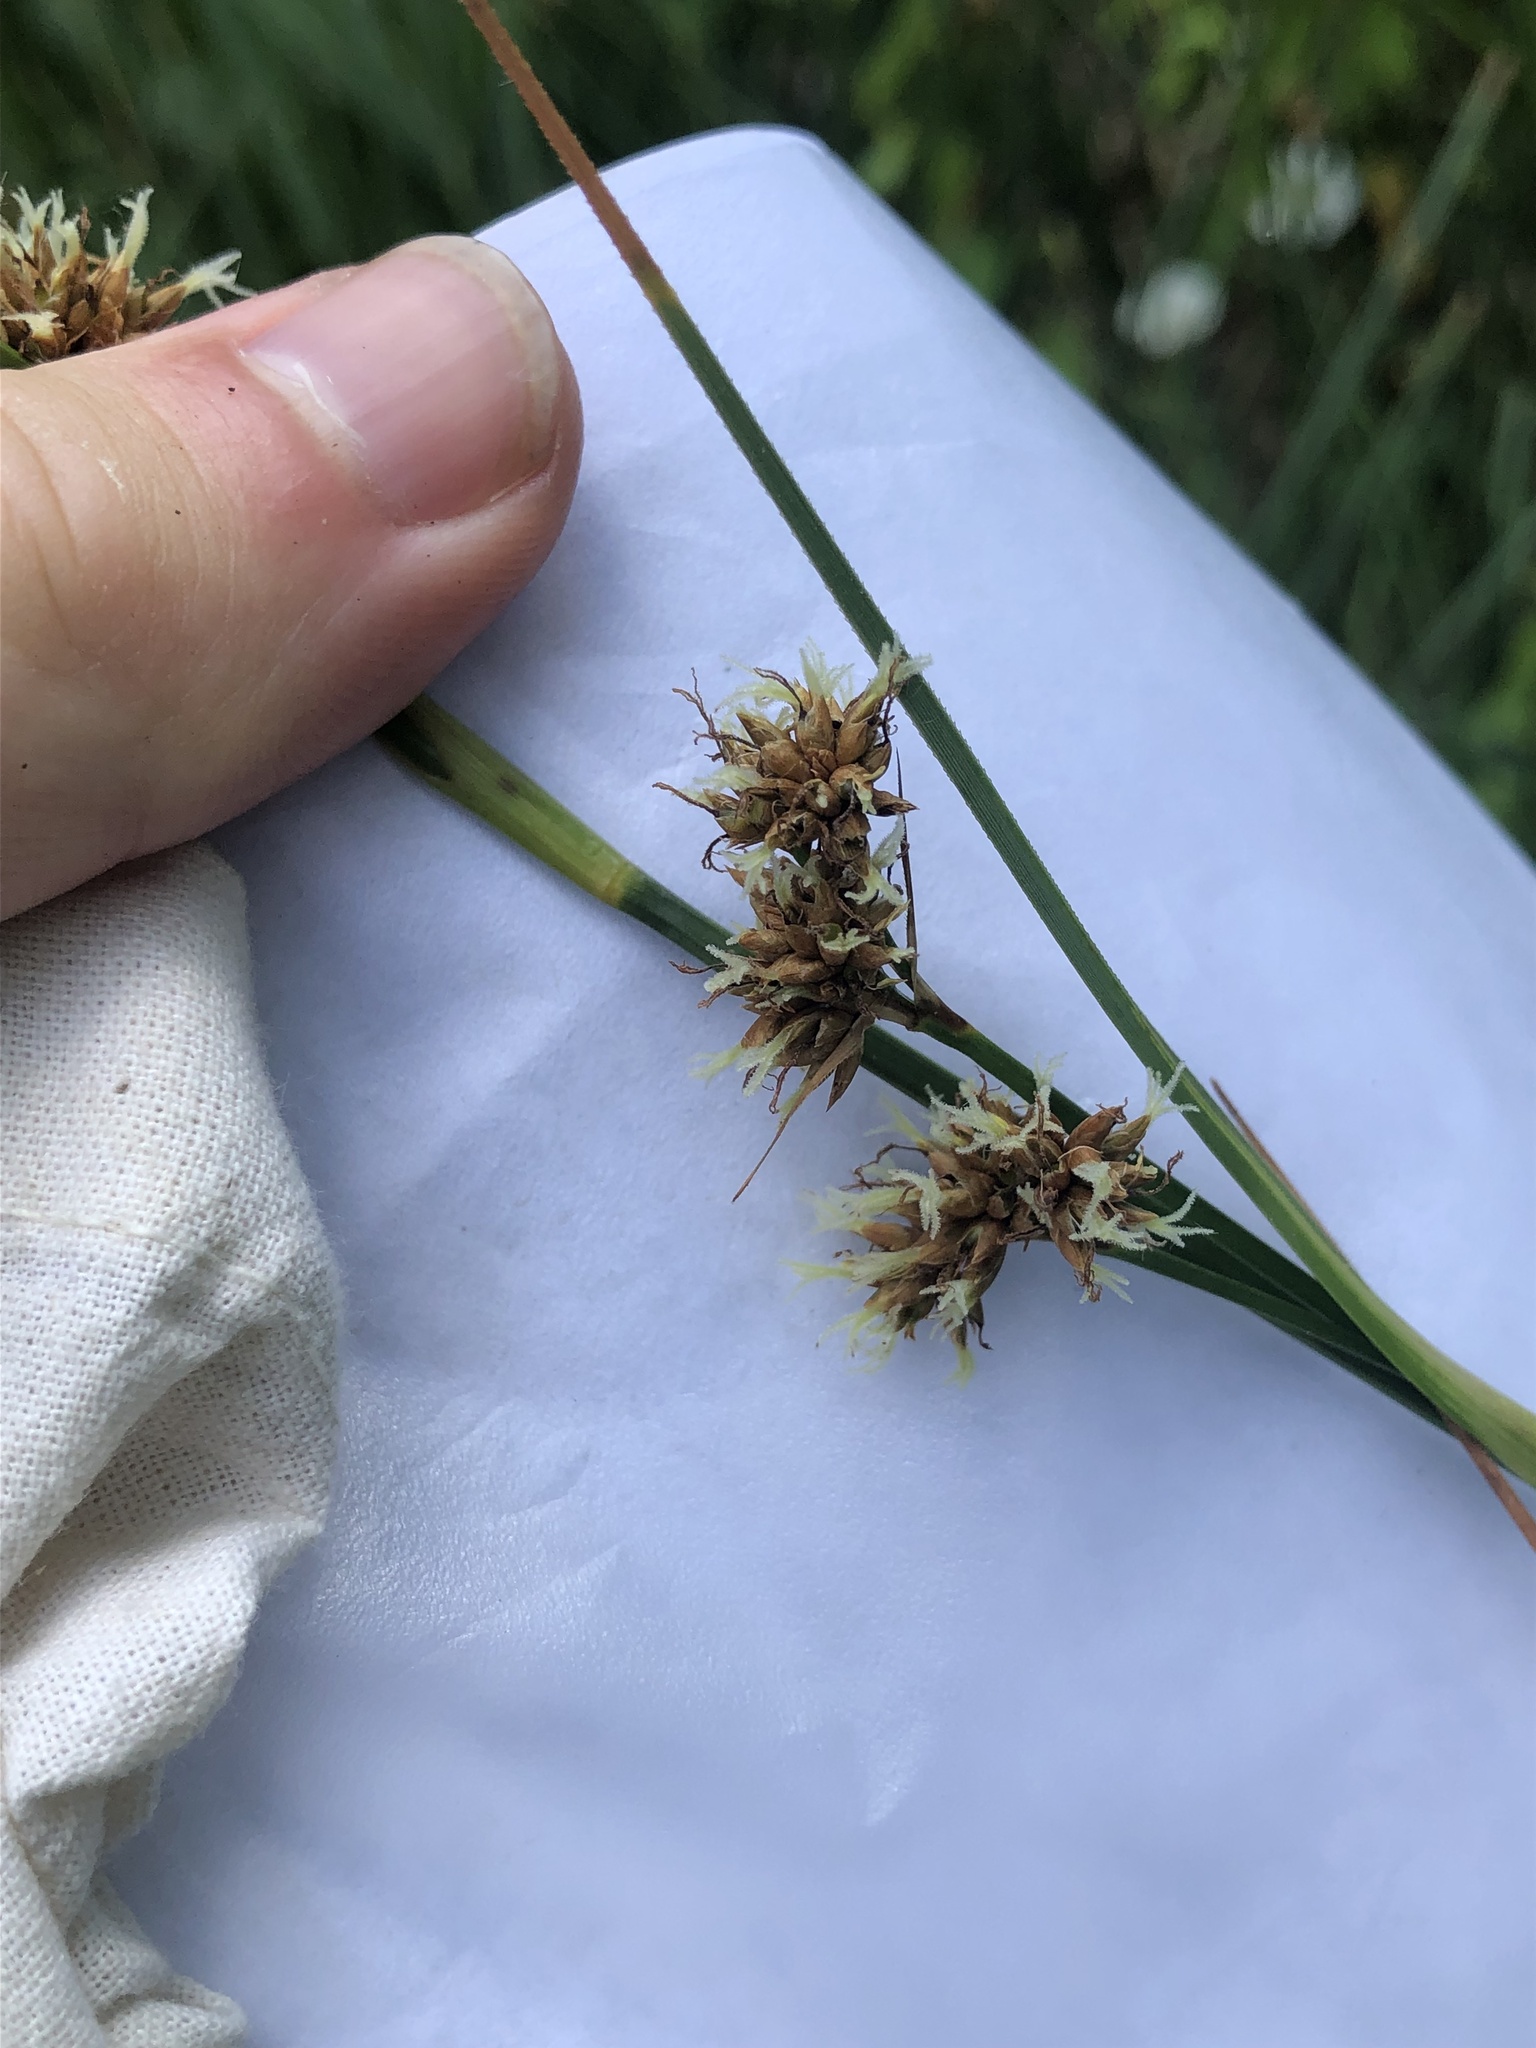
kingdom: Plantae
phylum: Tracheophyta
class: Liliopsida
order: Poales
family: Cyperaceae
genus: Cladium
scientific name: Cladium mariscus
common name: Great fen-sedge
